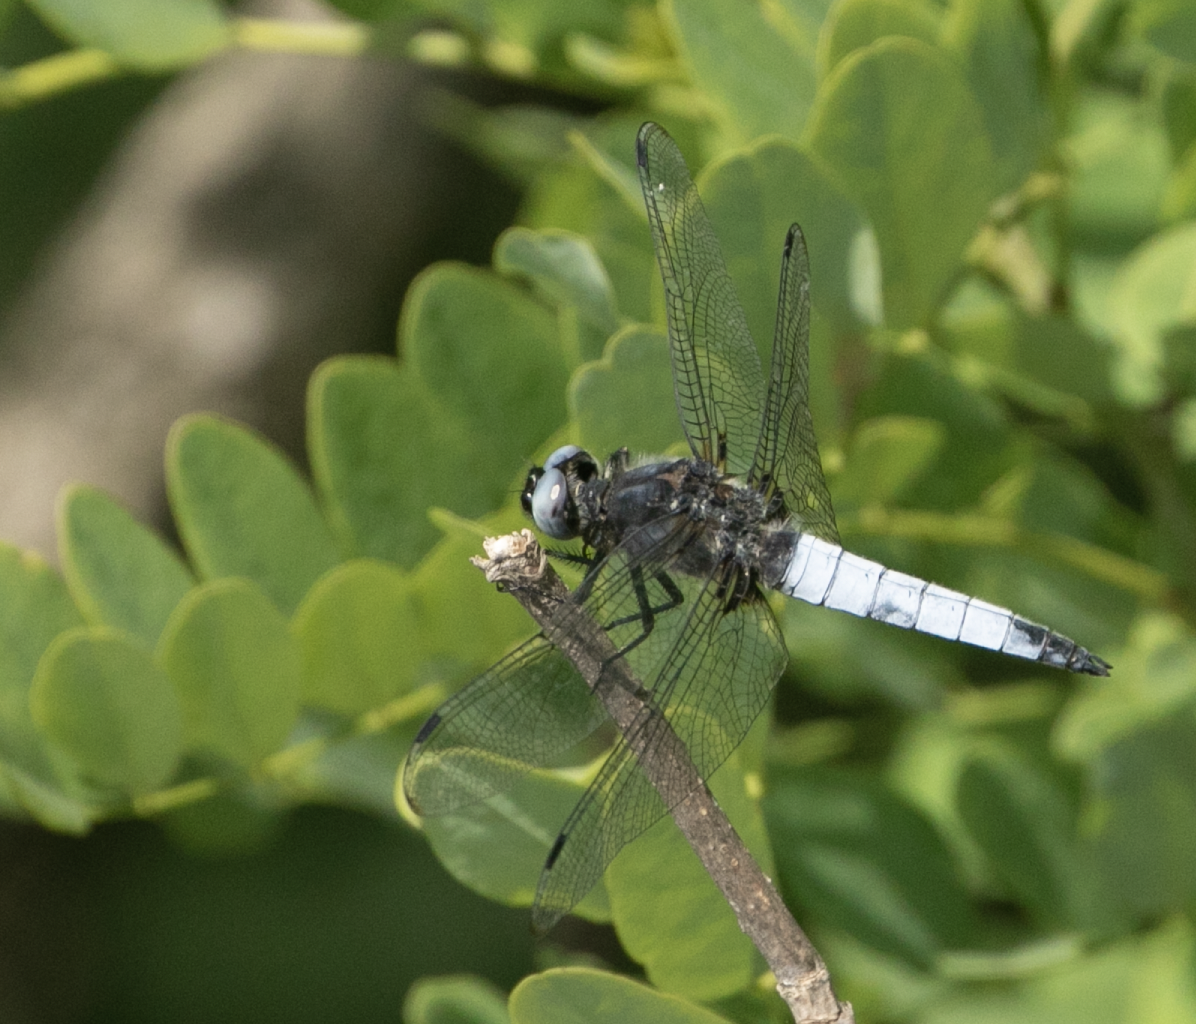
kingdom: Animalia
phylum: Arthropoda
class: Insecta
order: Odonata
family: Libellulidae
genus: Libellula
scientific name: Libellula fulva
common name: Blue chaser
